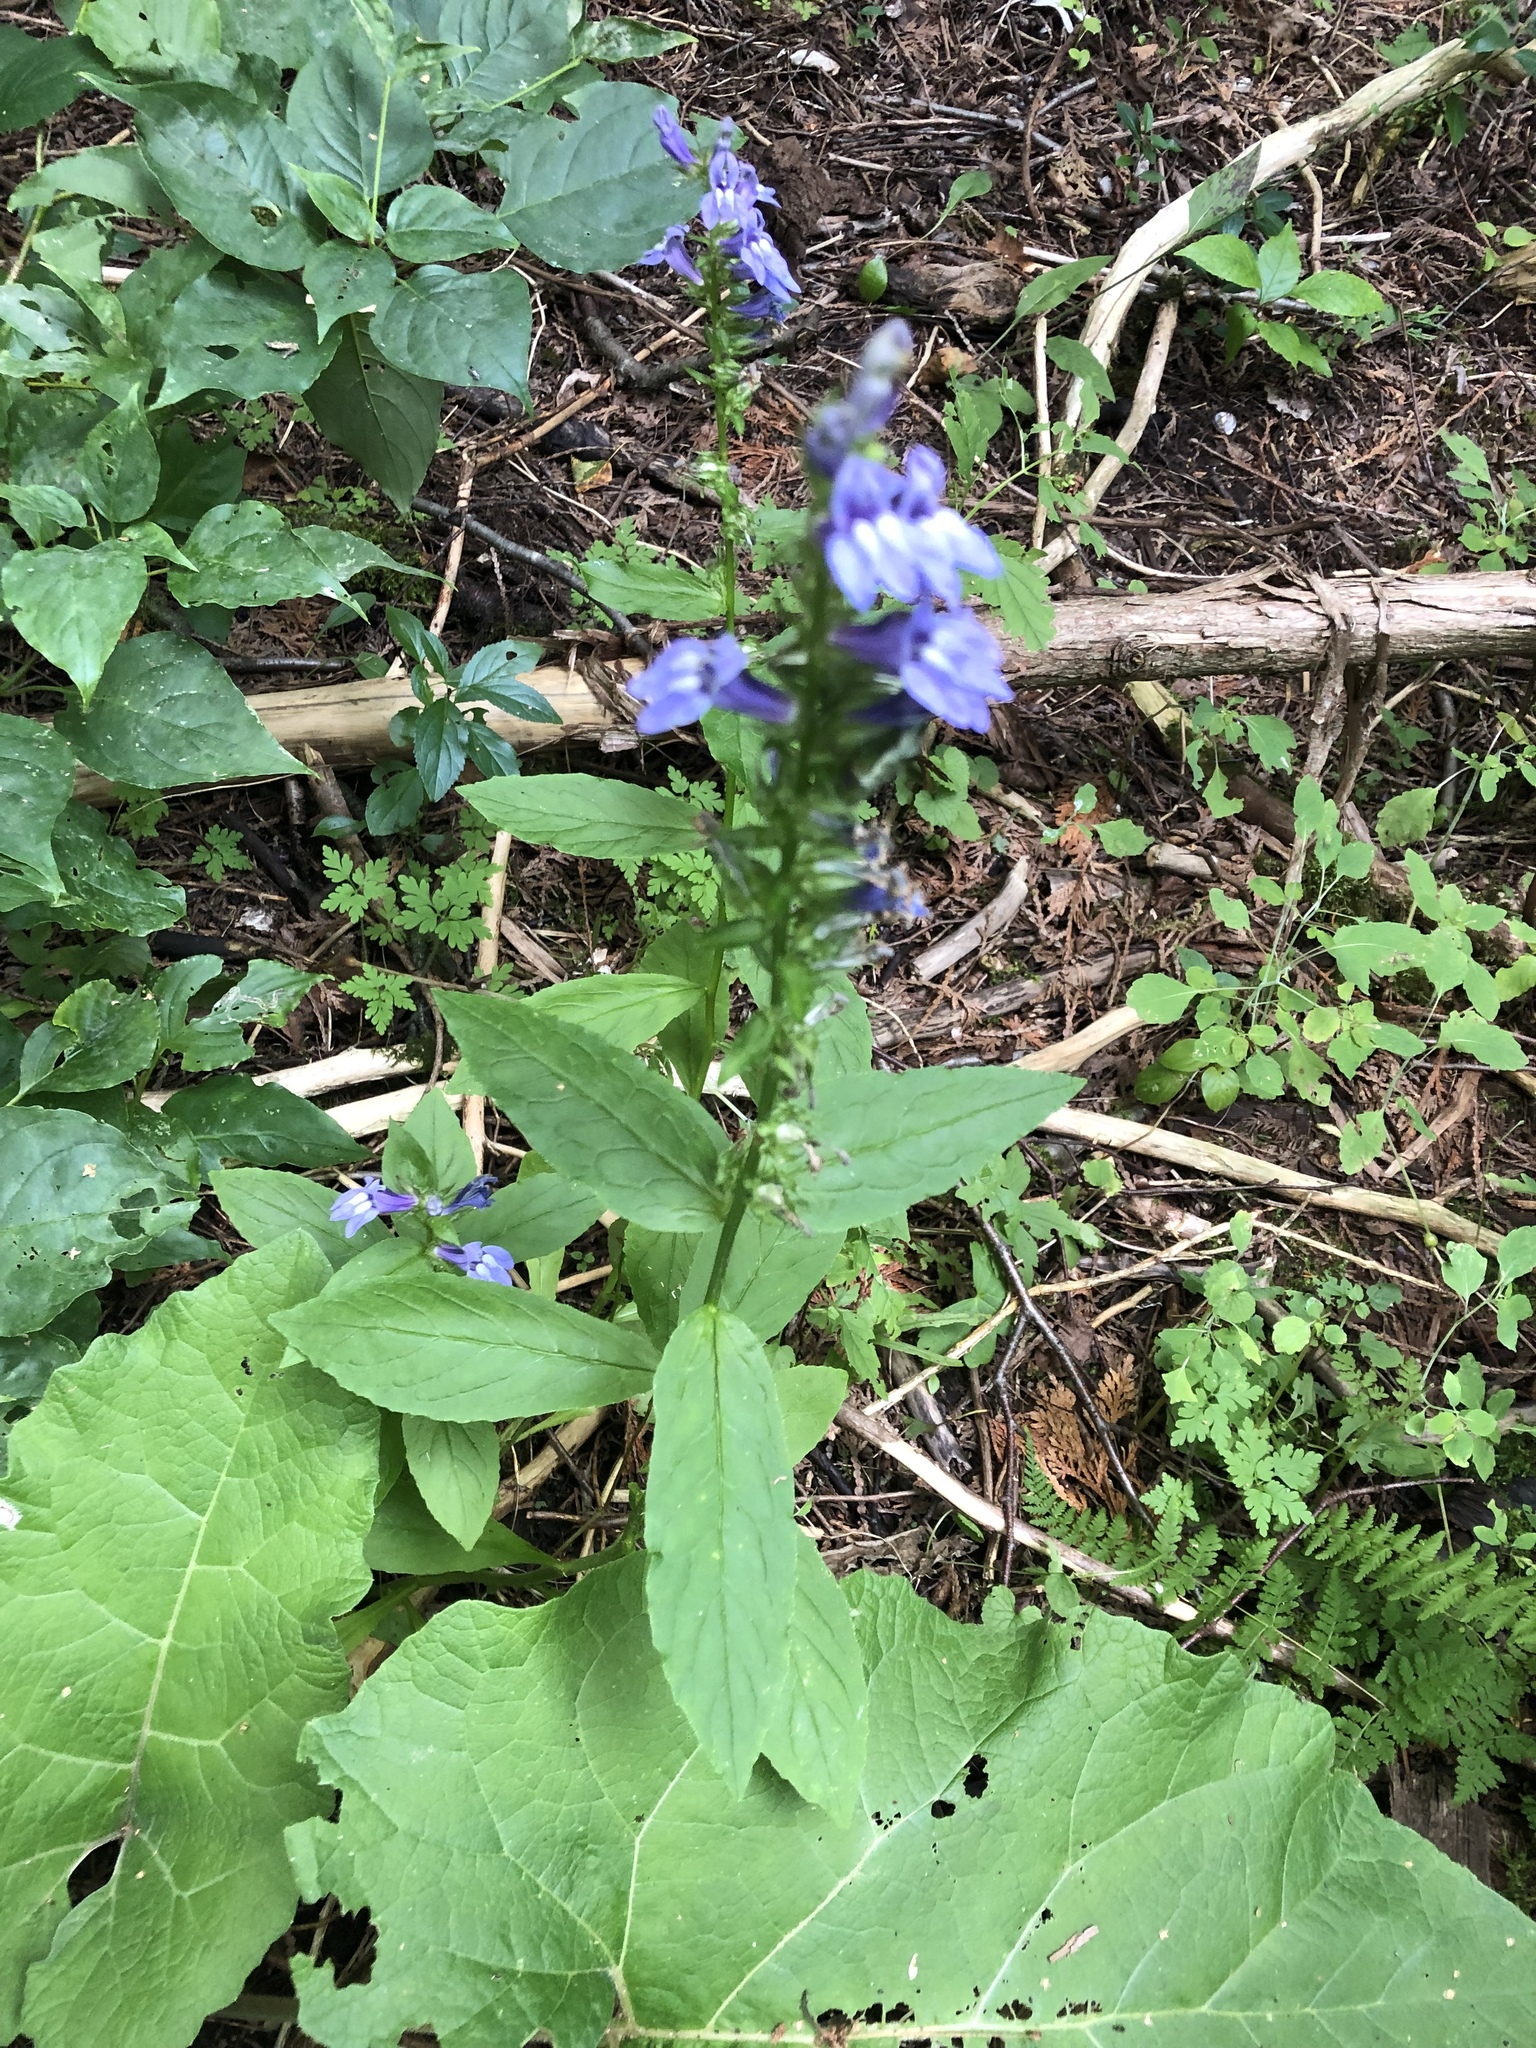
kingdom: Plantae
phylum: Tracheophyta
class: Magnoliopsida
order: Asterales
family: Campanulaceae
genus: Lobelia
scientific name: Lobelia siphilitica
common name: Great lobelia
